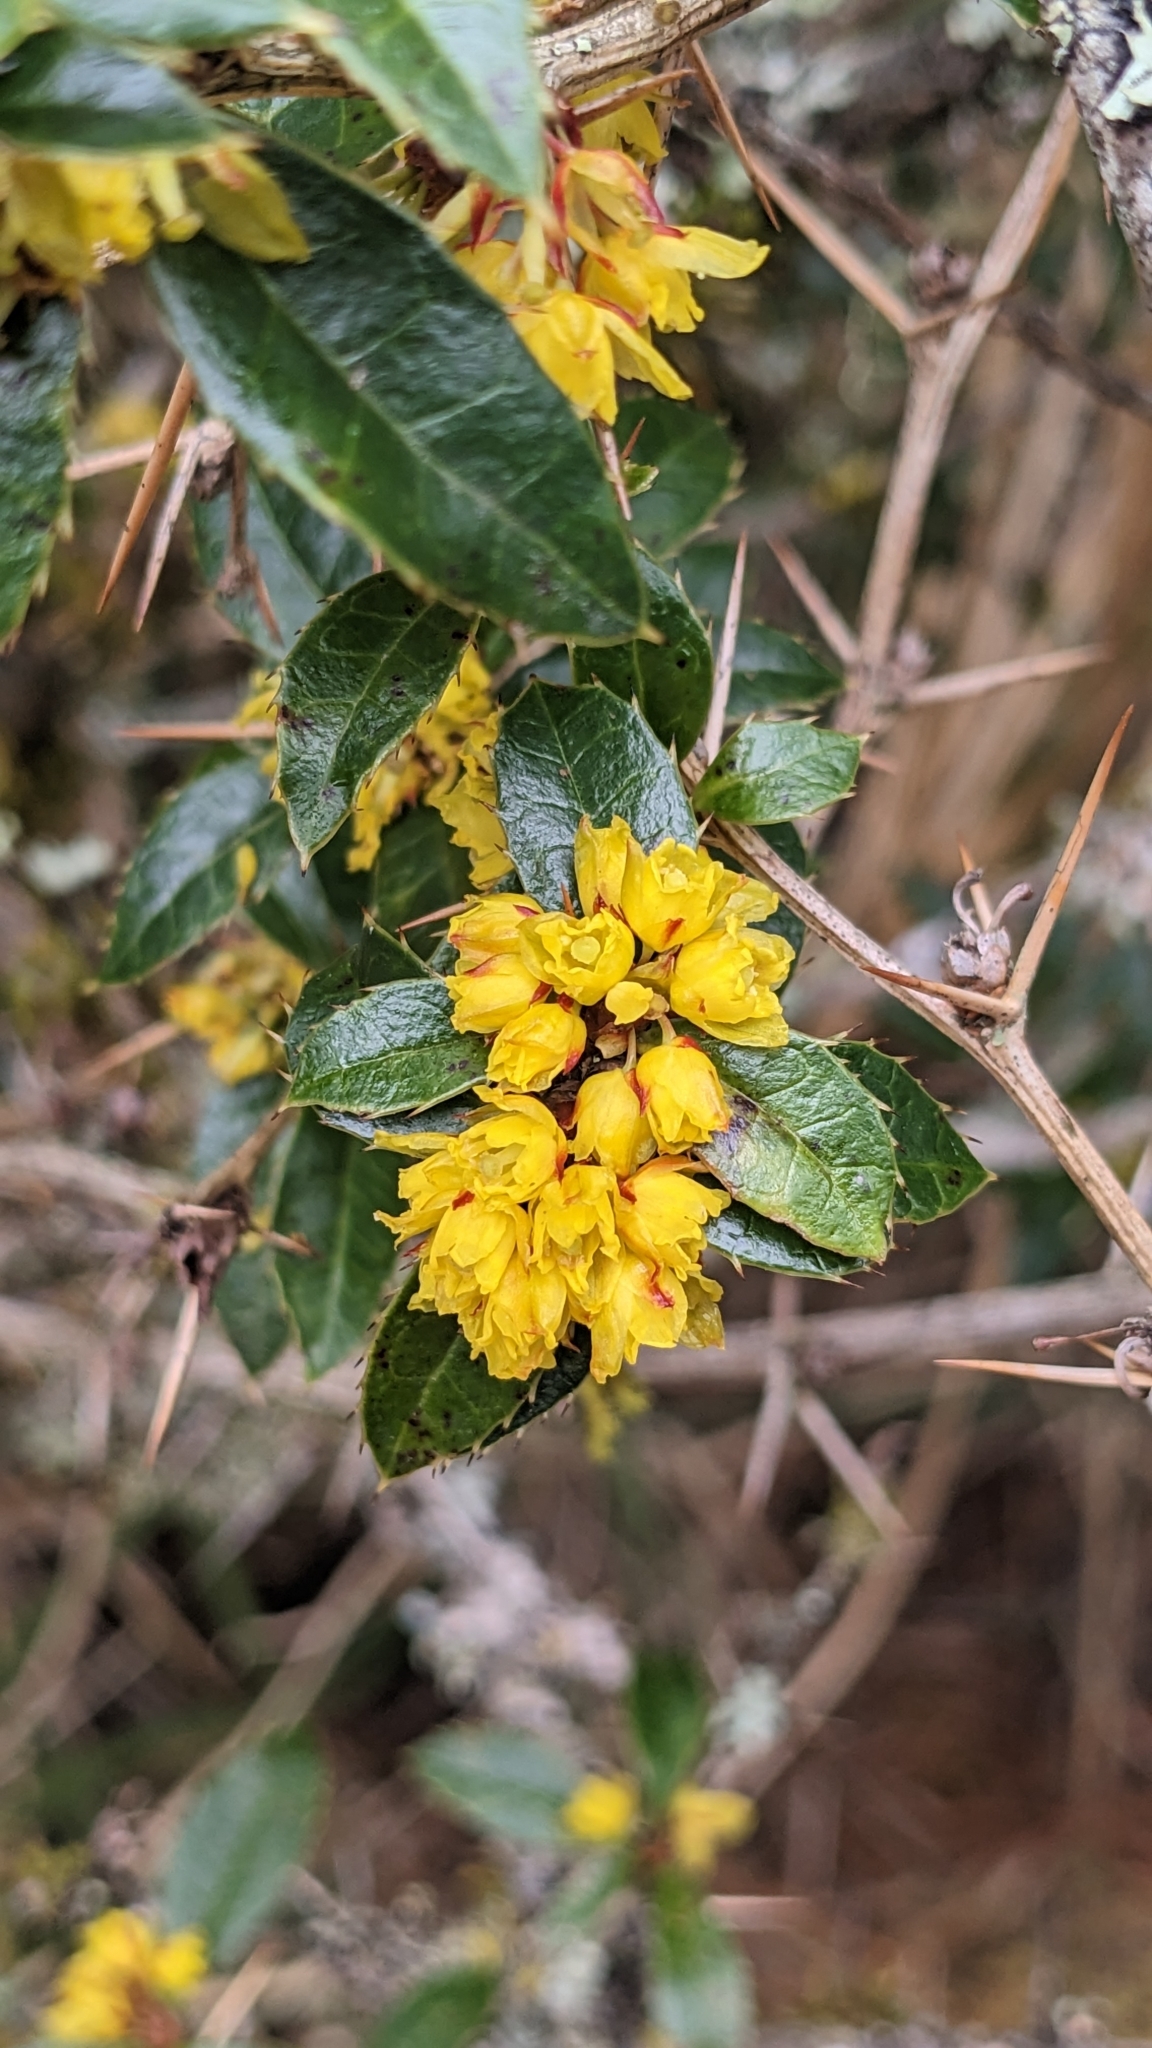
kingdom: Plantae
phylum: Tracheophyta
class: Magnoliopsida
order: Ranunculales
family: Berberidaceae
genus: Berberis
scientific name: Berberis kawakamii
